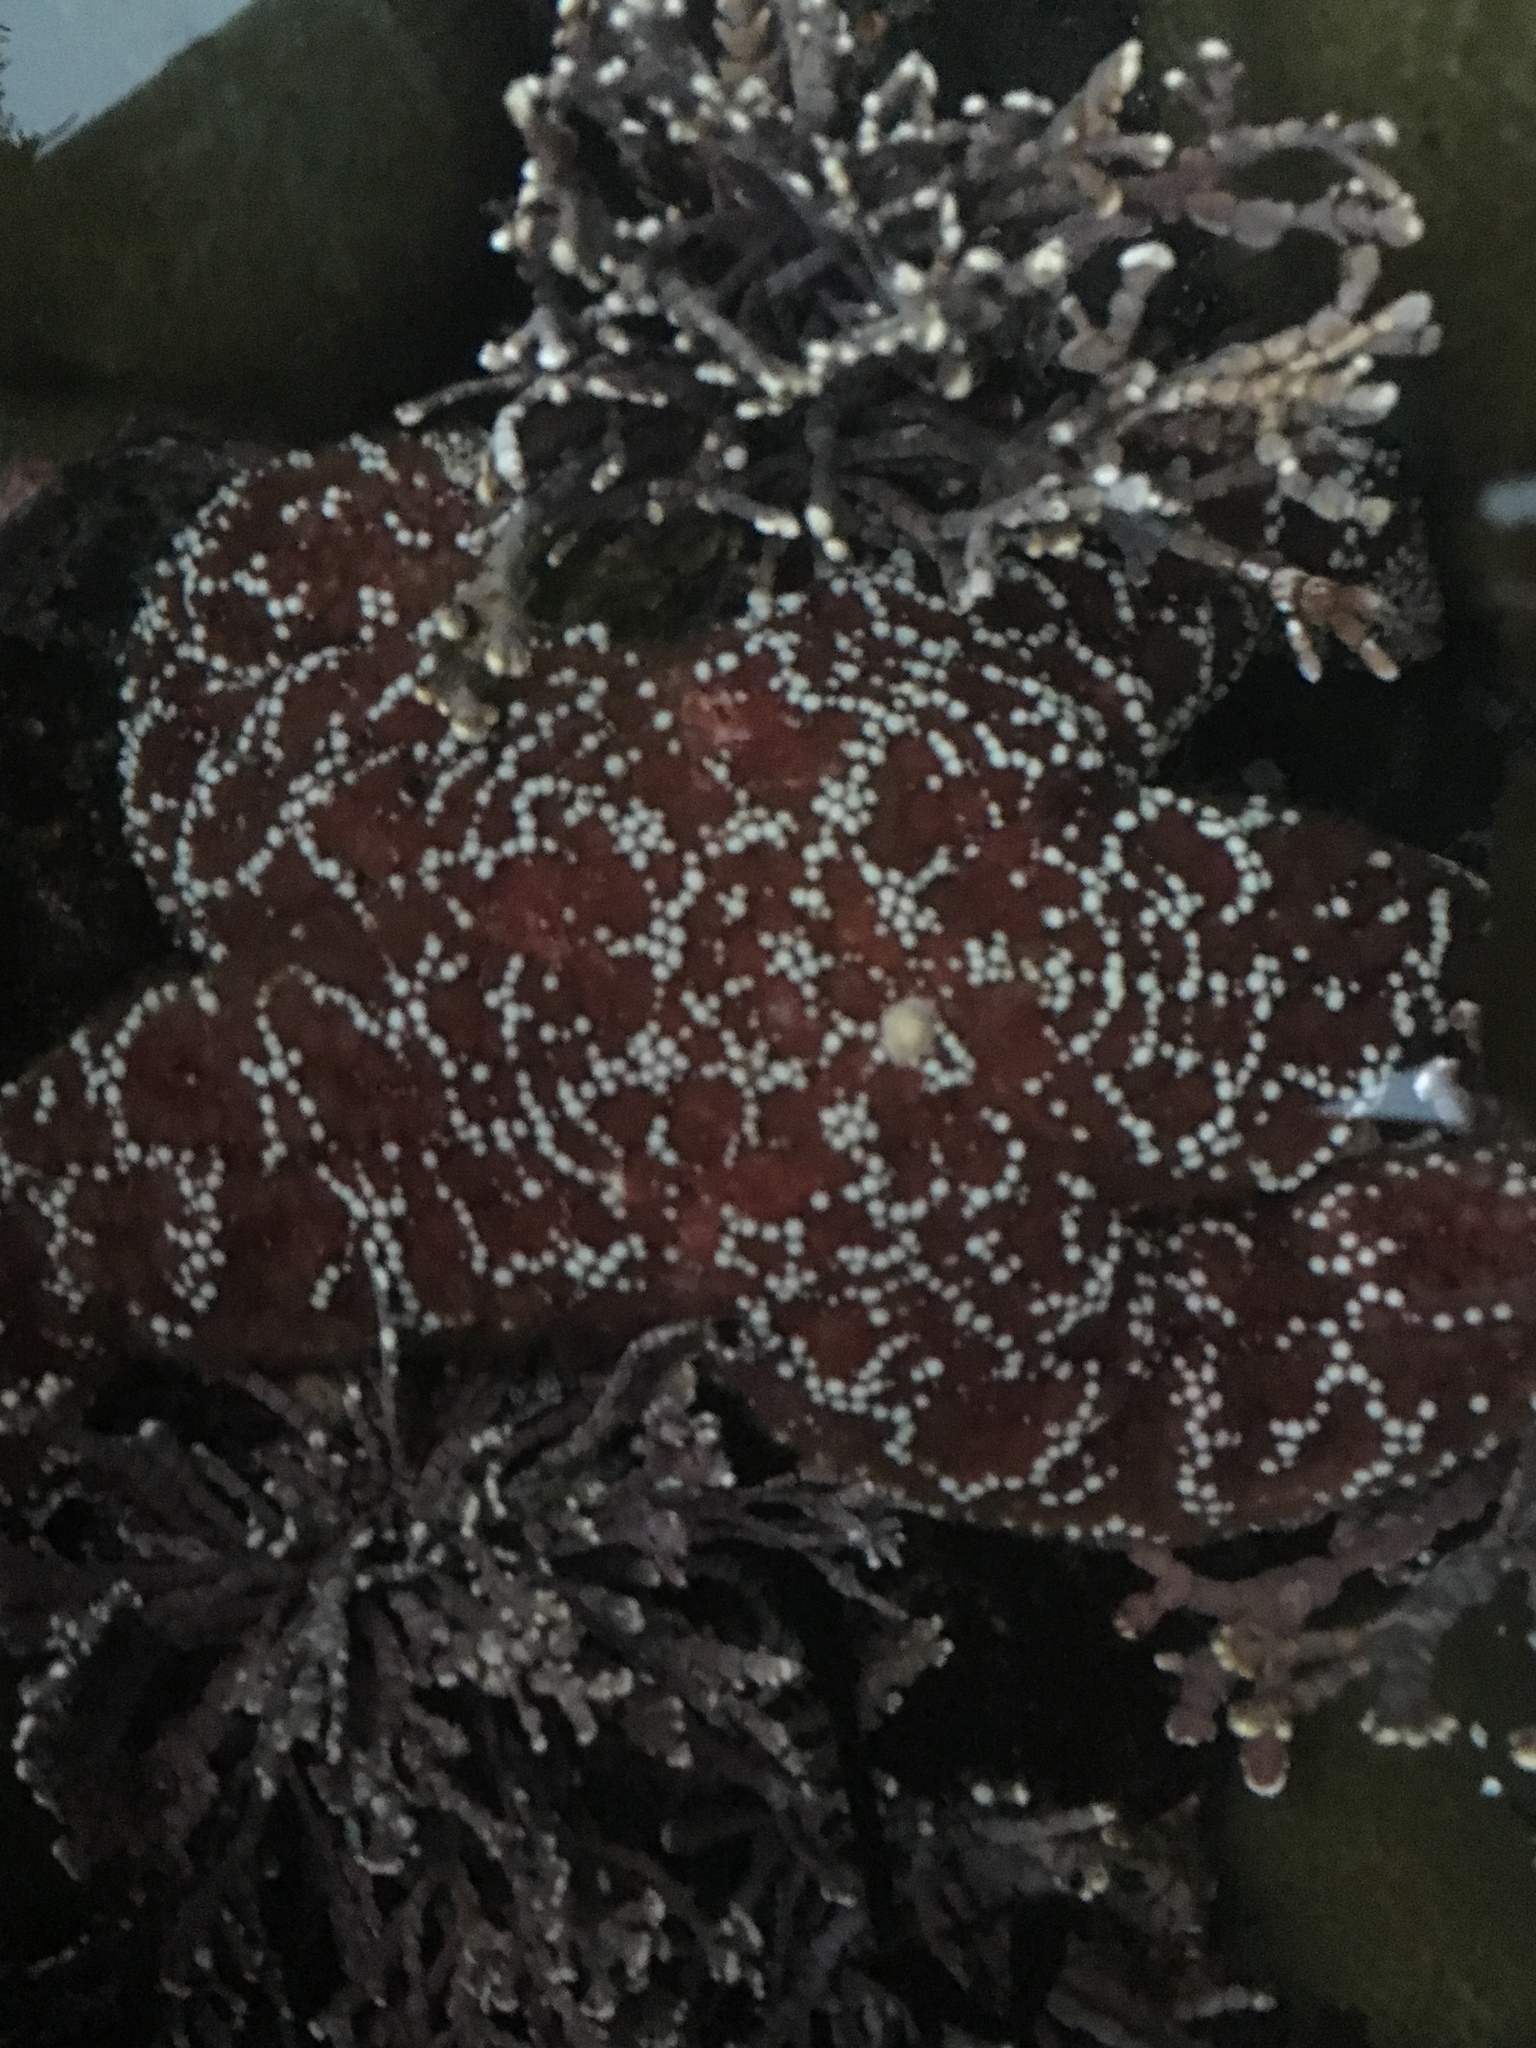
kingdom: Animalia
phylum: Echinodermata
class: Asteroidea
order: Forcipulatida
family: Asteriidae
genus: Pisaster
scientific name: Pisaster ochraceus
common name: Ochre stars
